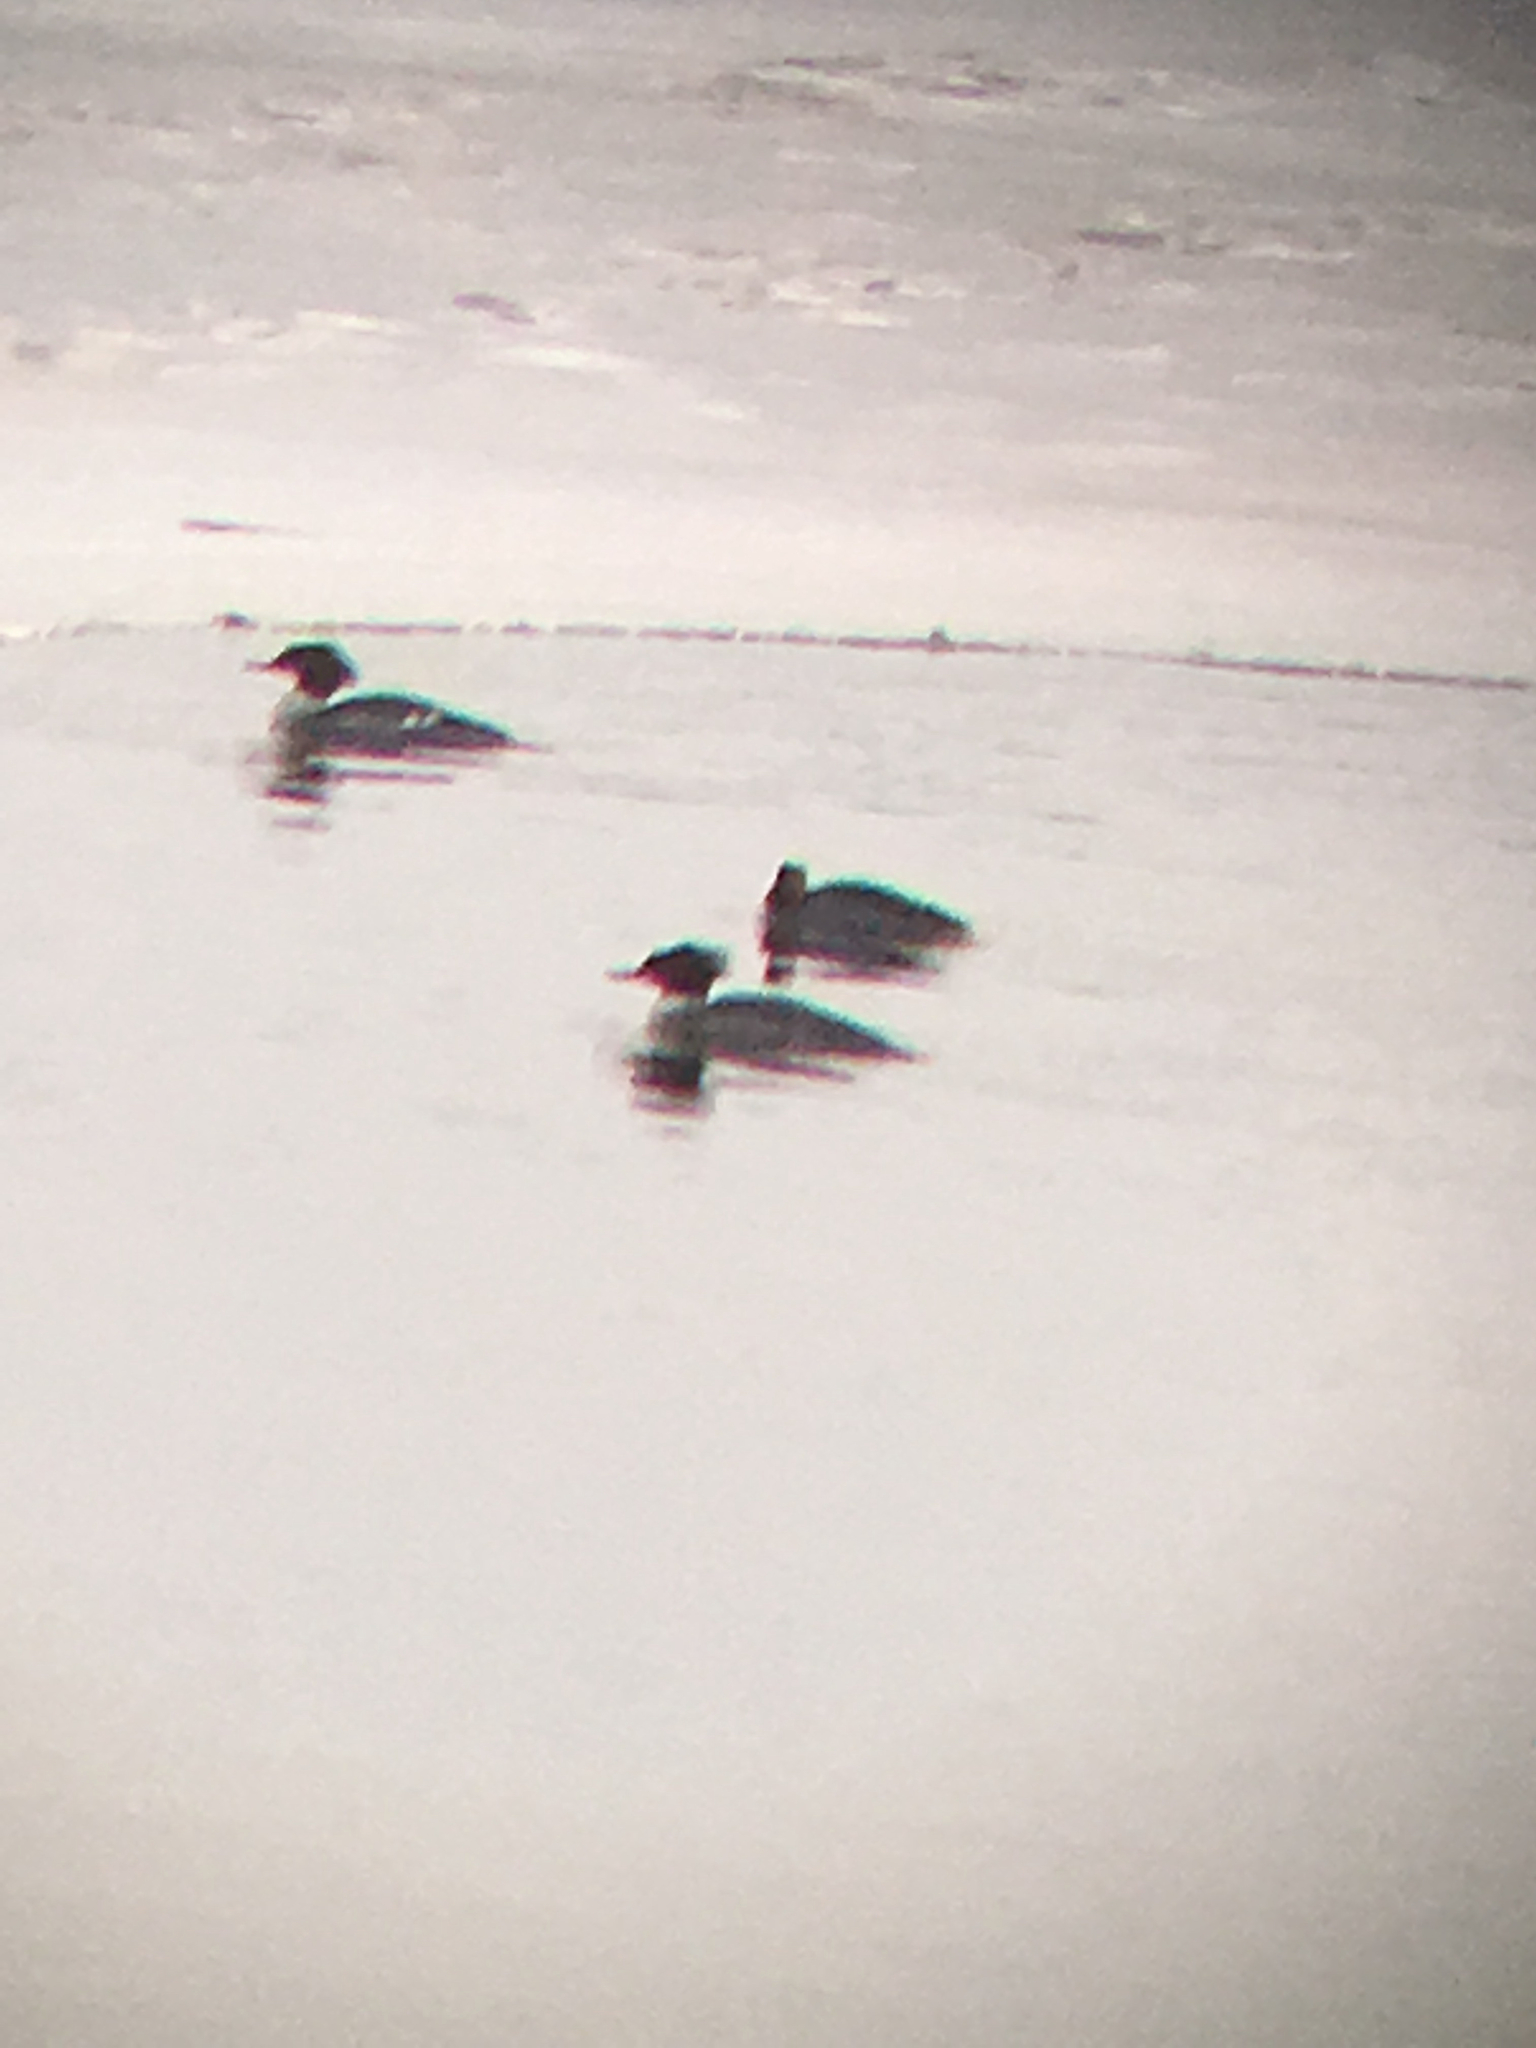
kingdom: Animalia
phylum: Chordata
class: Aves
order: Anseriformes
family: Anatidae
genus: Mergus
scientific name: Mergus merganser
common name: Common merganser
